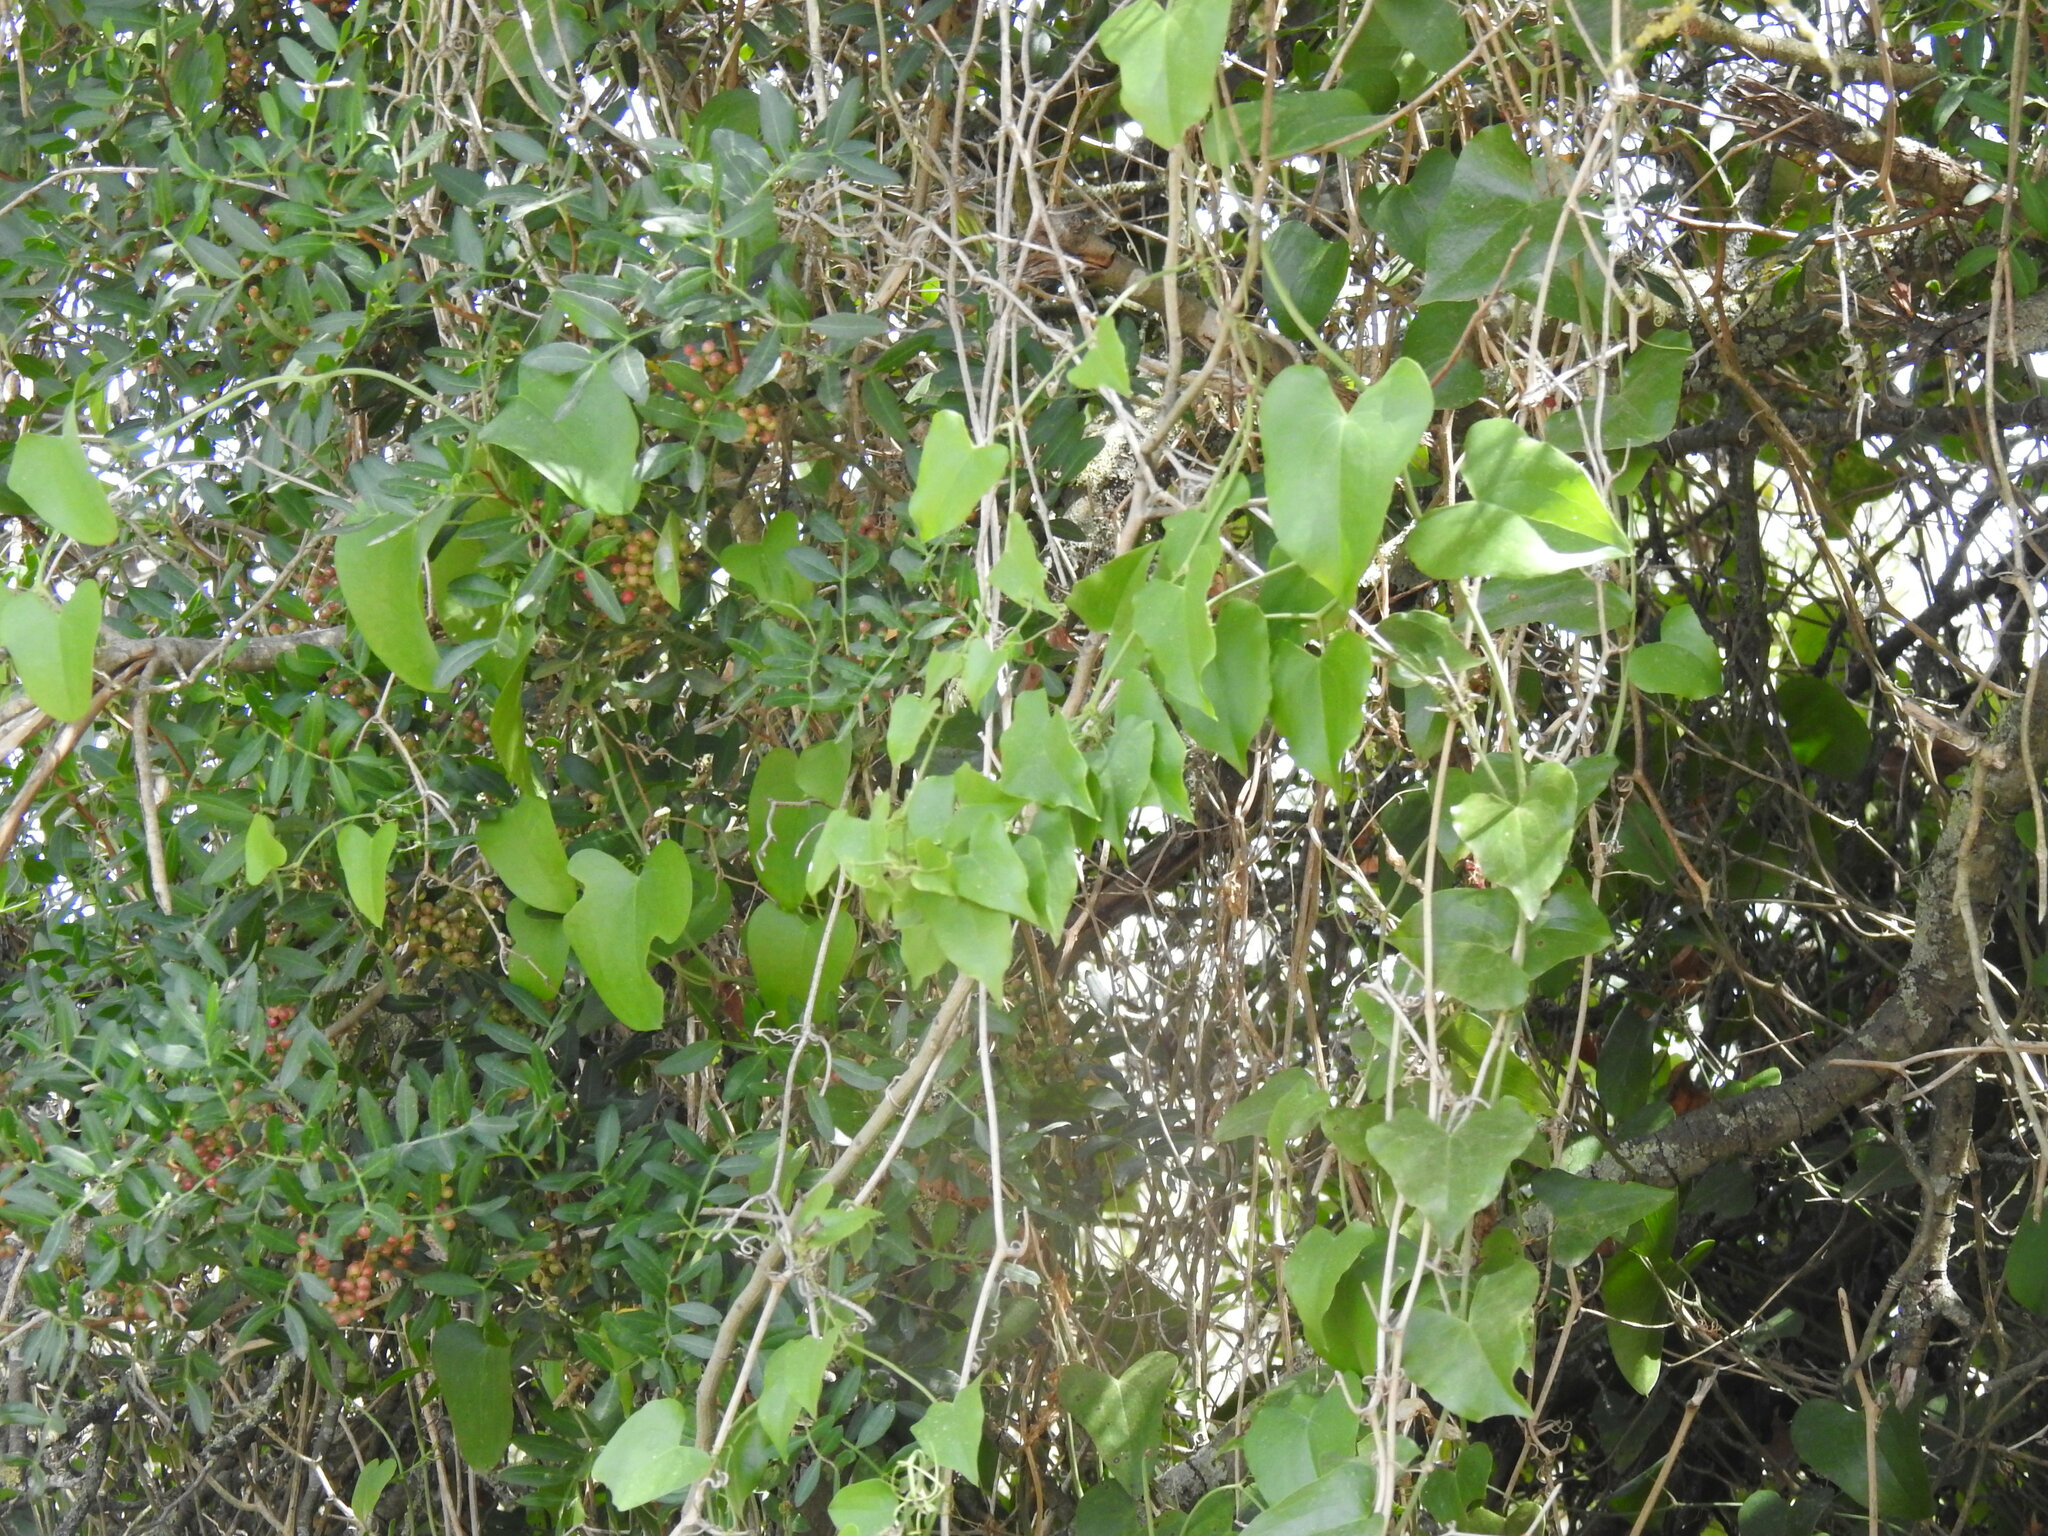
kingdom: Plantae
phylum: Tracheophyta
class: Liliopsida
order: Liliales
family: Smilacaceae
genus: Smilax
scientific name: Smilax aspera
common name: Common smilax
